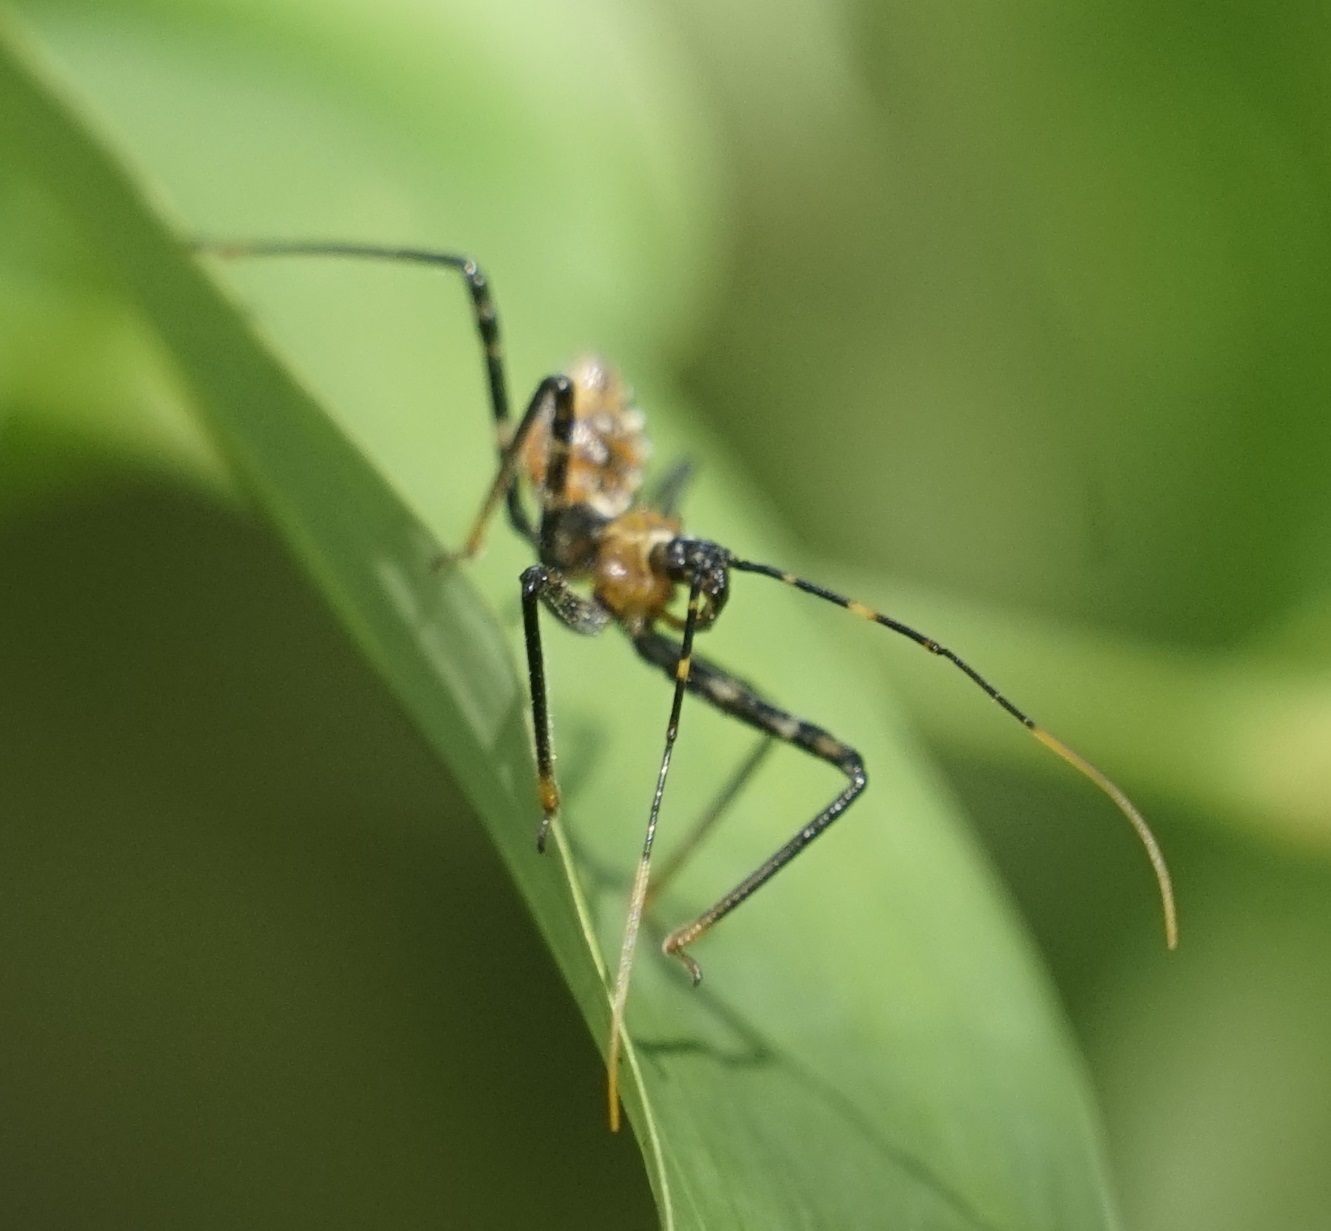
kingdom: Animalia
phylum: Arthropoda
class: Insecta
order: Hemiptera
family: Reduviidae
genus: Pristhesancus
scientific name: Pristhesancus plagipennis
